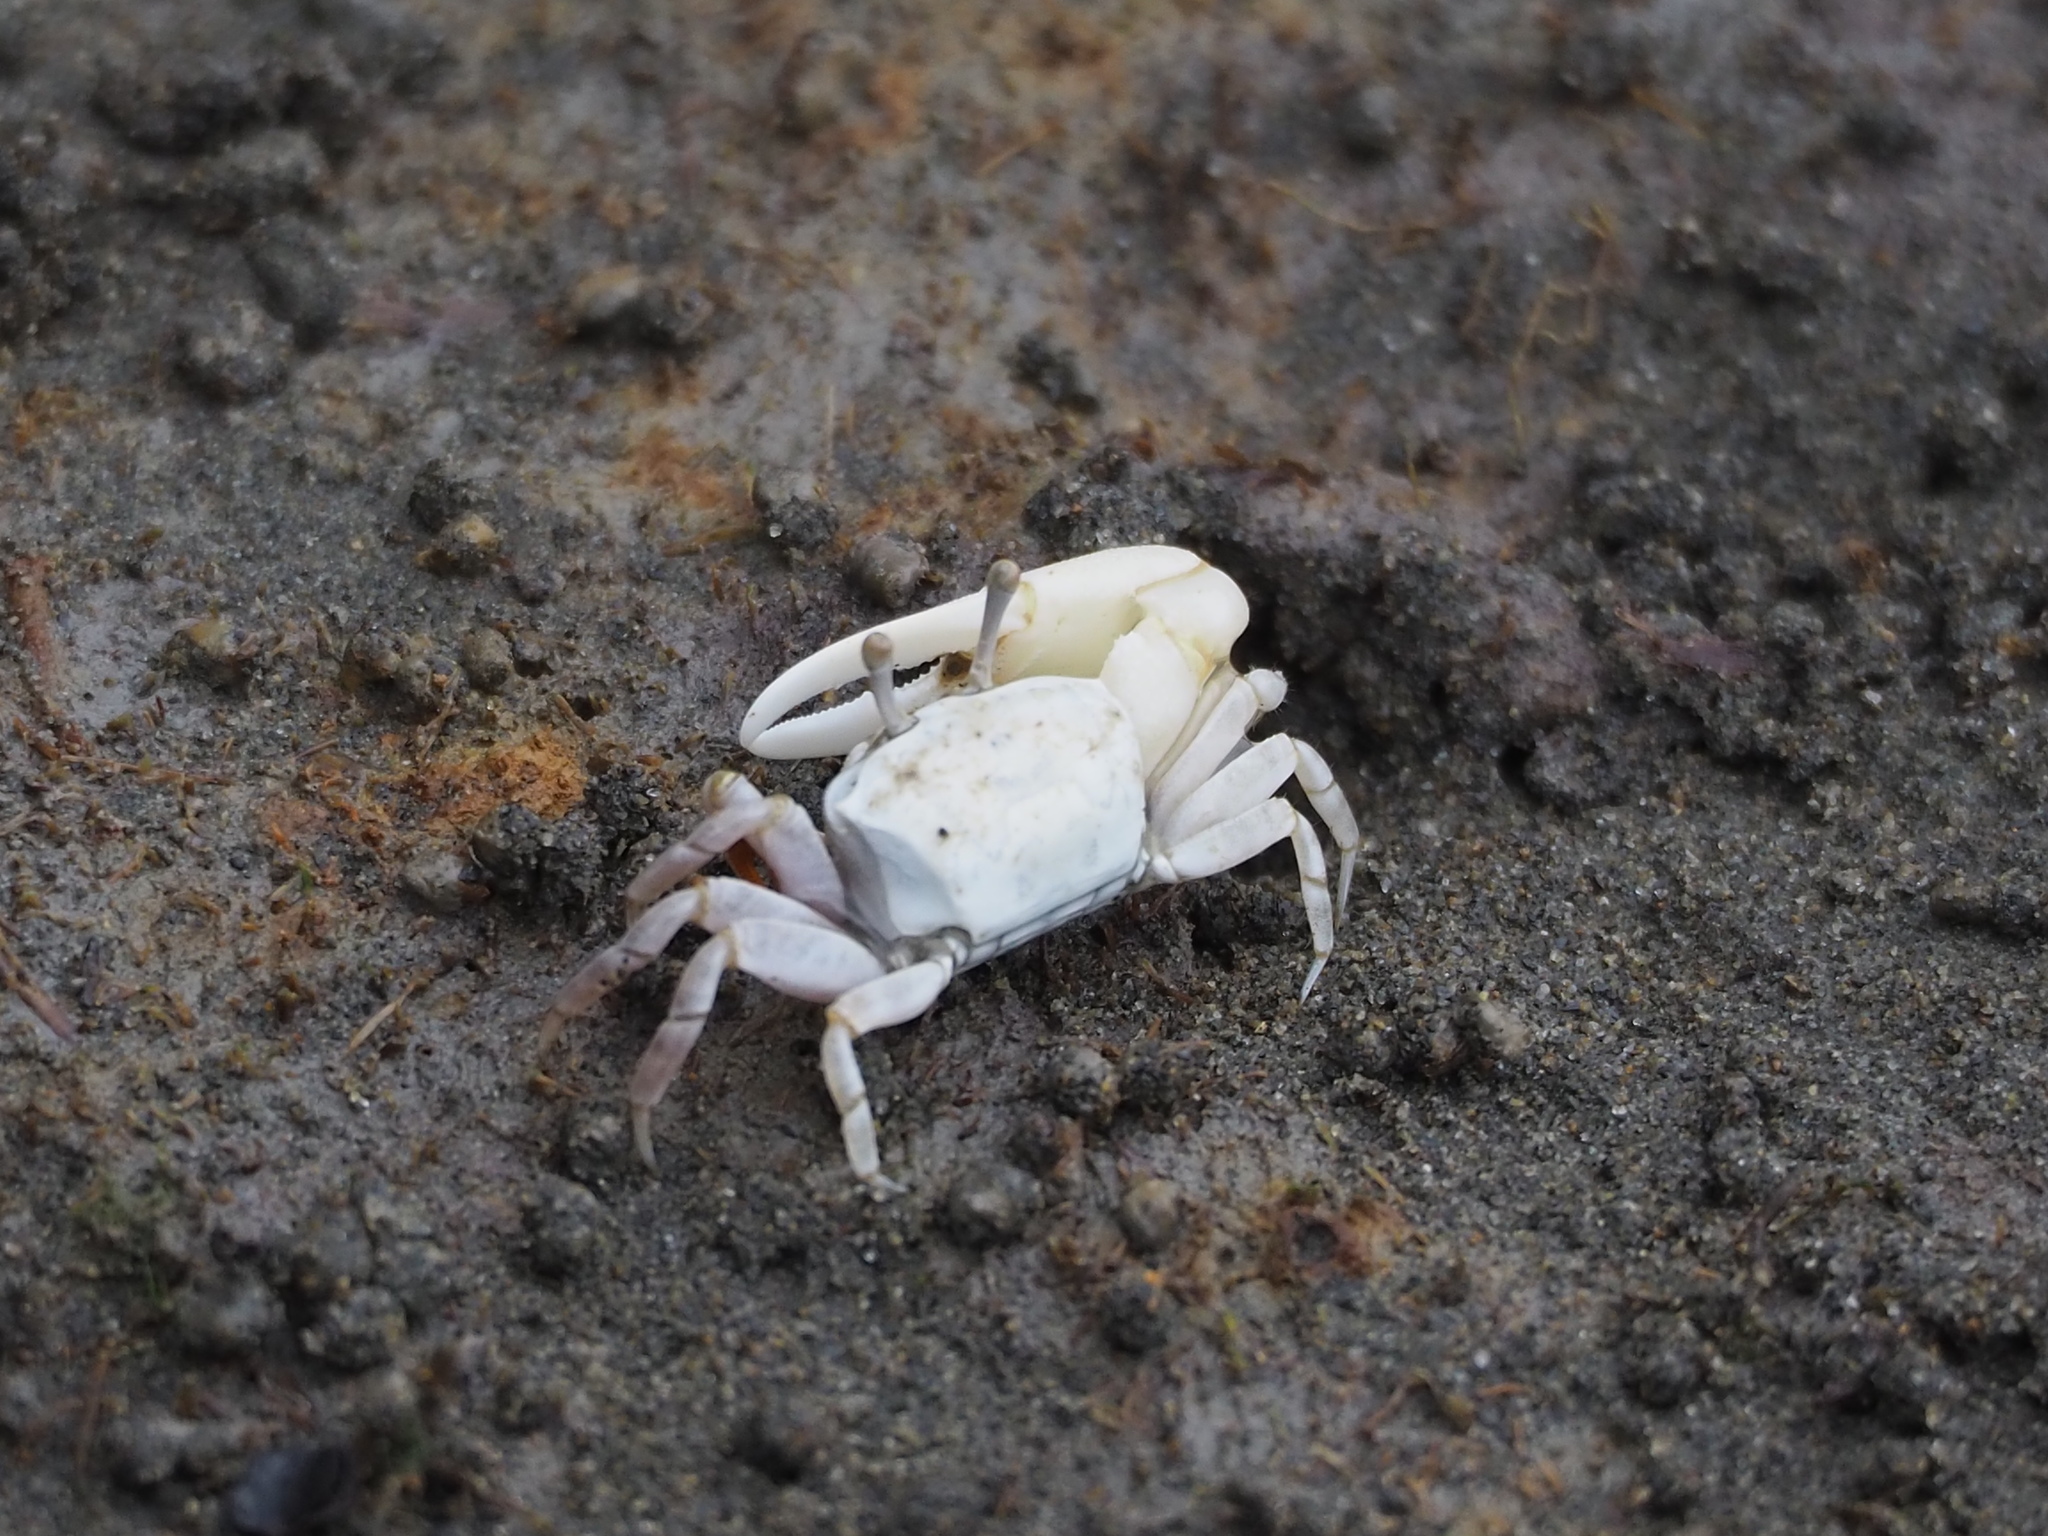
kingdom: Animalia
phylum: Arthropoda
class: Malacostraca
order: Decapoda
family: Ocypodidae
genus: Austruca
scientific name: Austruca lactea
